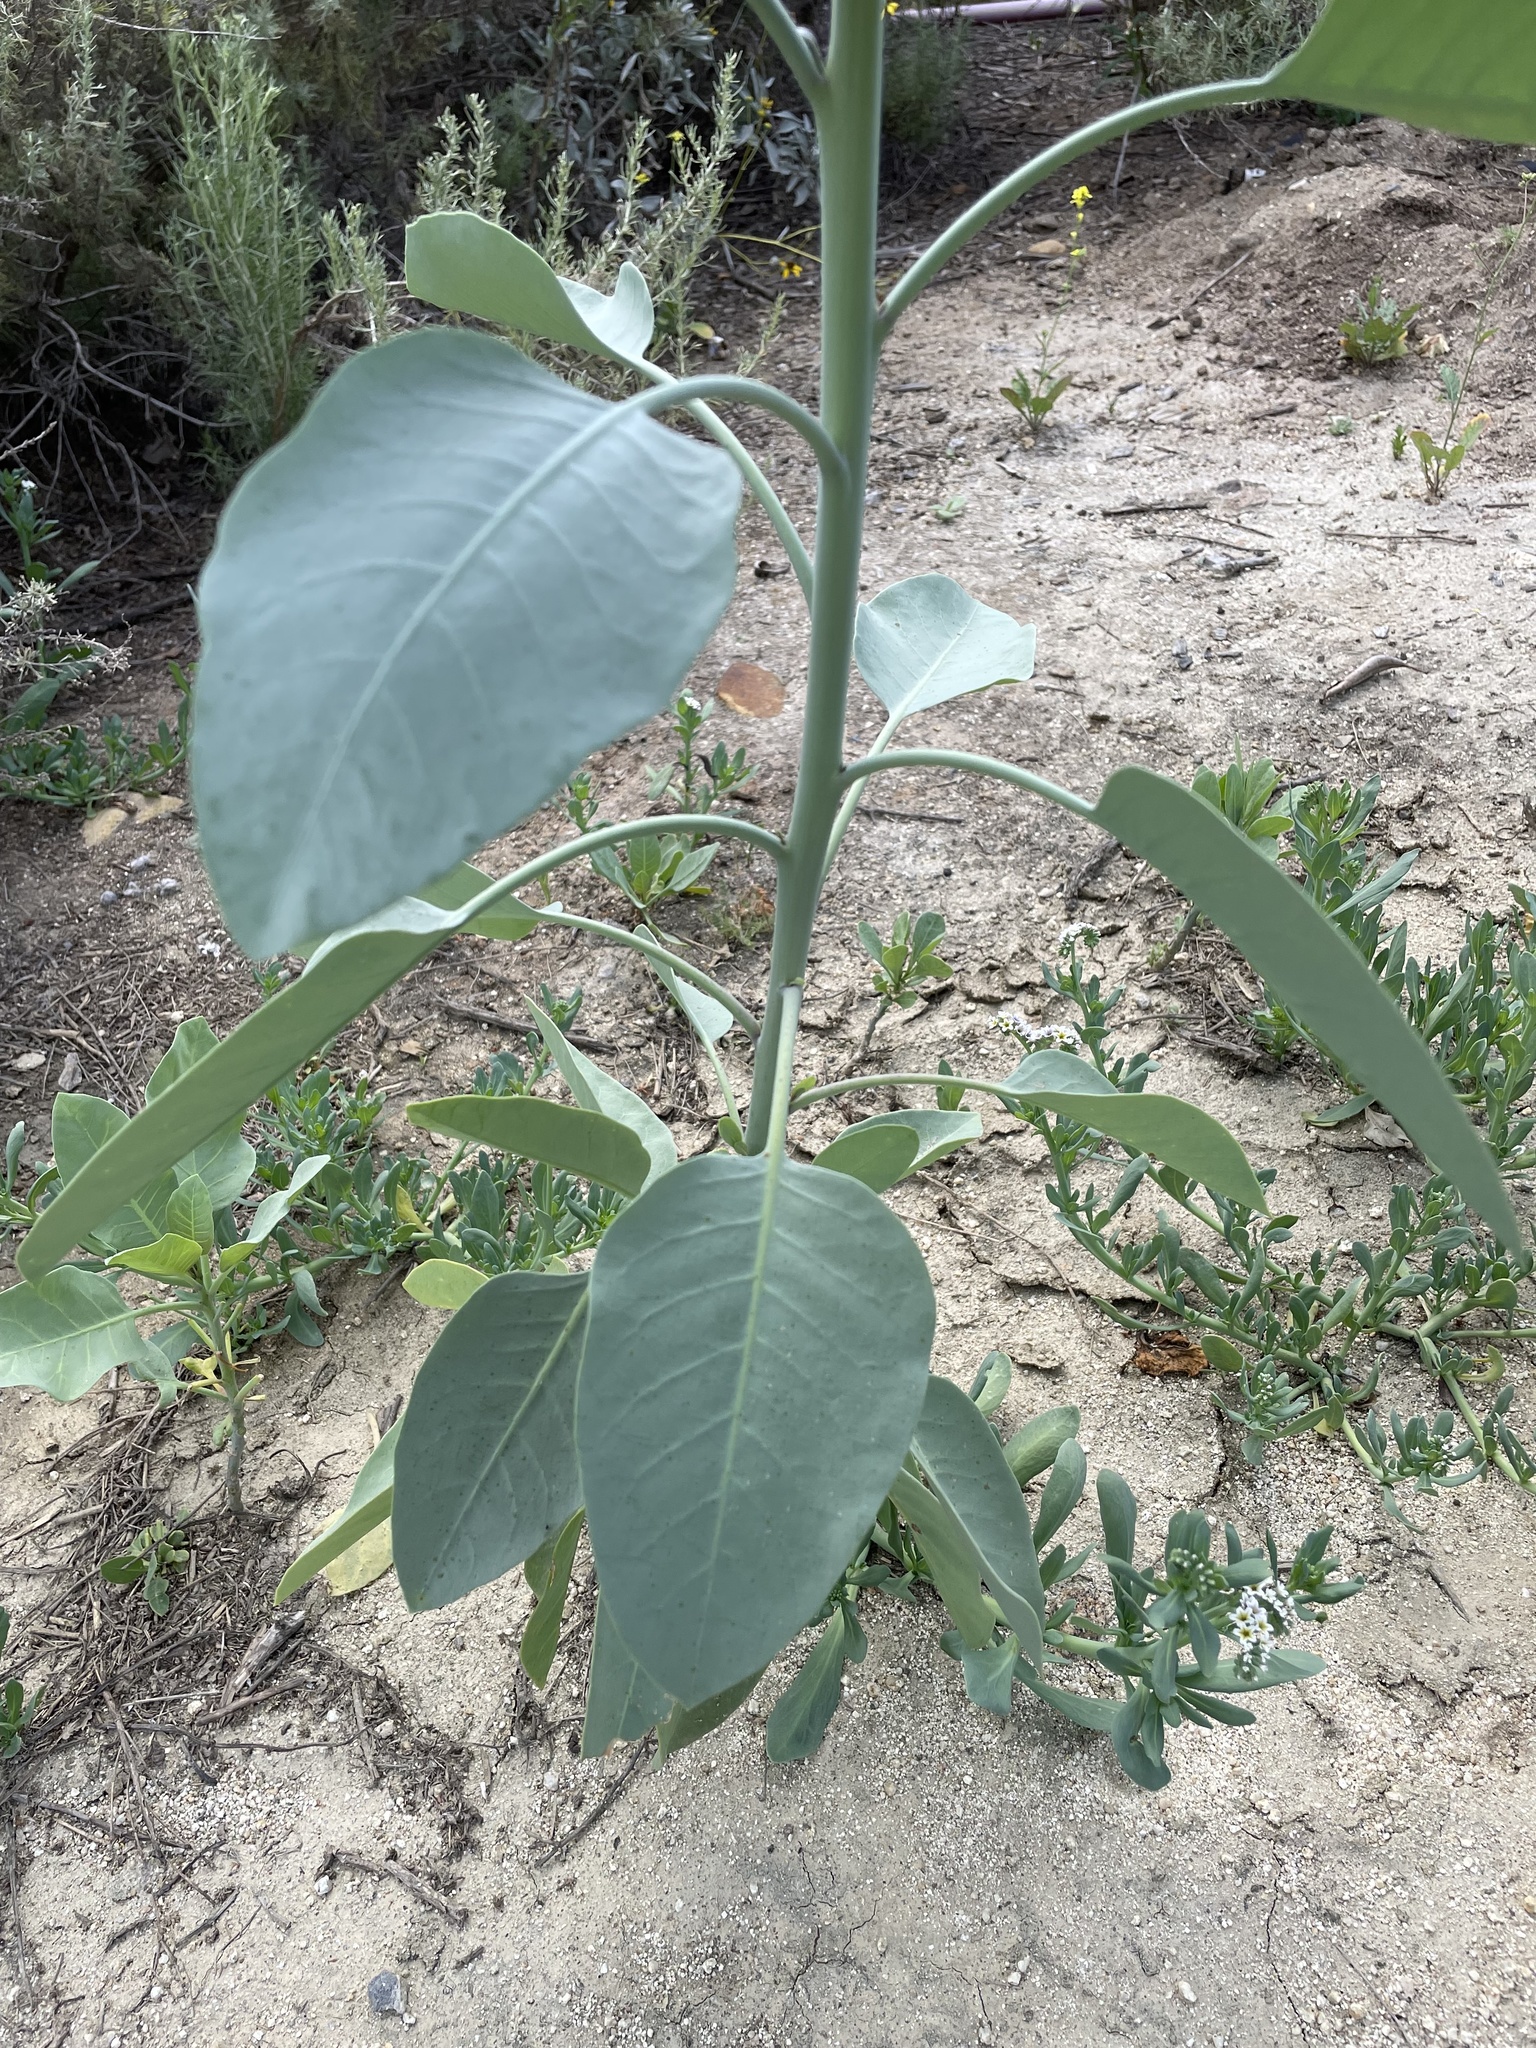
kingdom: Plantae
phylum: Tracheophyta
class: Magnoliopsida
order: Solanales
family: Solanaceae
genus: Nicotiana
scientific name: Nicotiana glauca
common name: Tree tobacco
